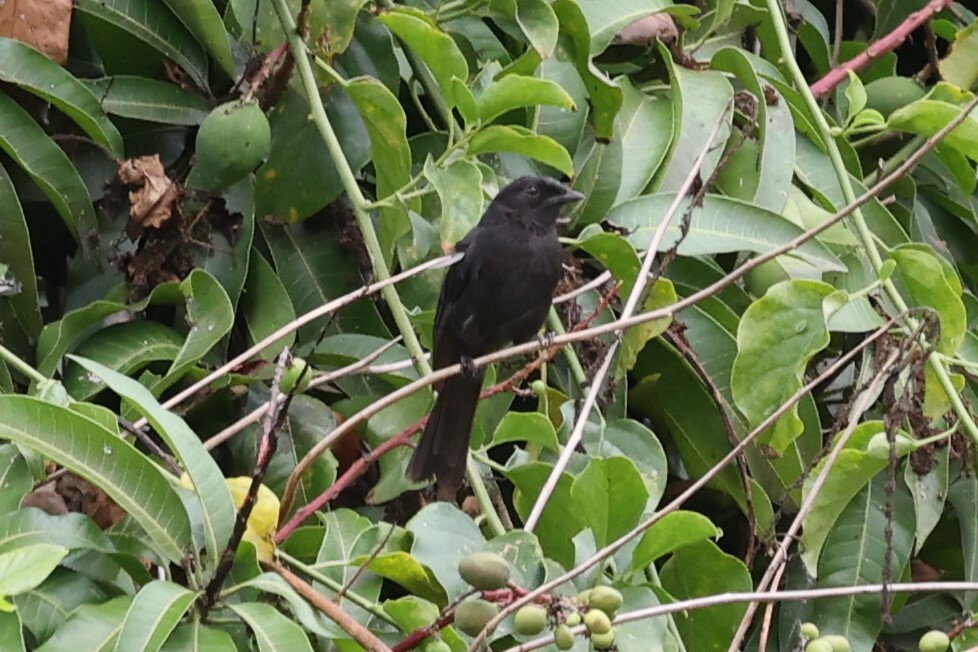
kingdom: Animalia
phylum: Chordata
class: Aves
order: Passeriformes
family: Muscicapidae
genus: Melaenornis
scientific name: Melaenornis edolioides
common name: Northern black flycatcher
